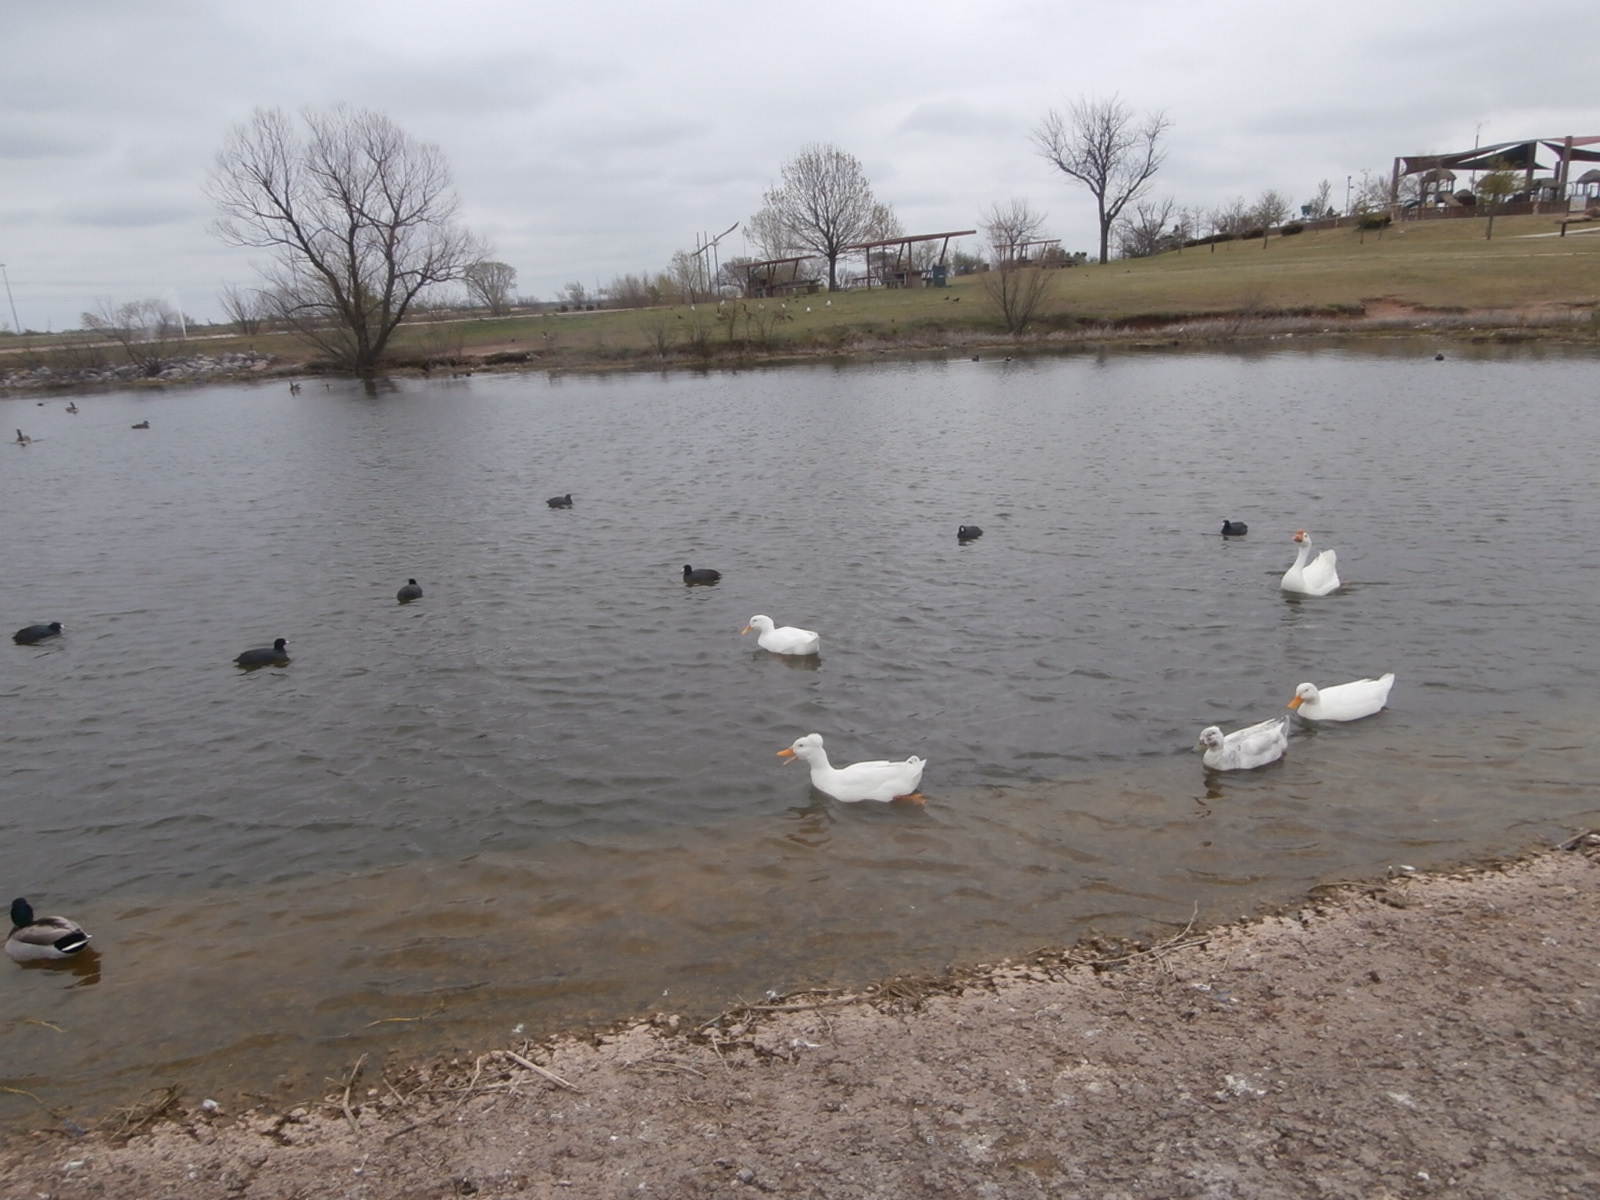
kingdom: Animalia
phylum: Chordata
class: Aves
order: Anseriformes
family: Anatidae
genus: Anas
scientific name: Anas platyrhynchos
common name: Mallard
